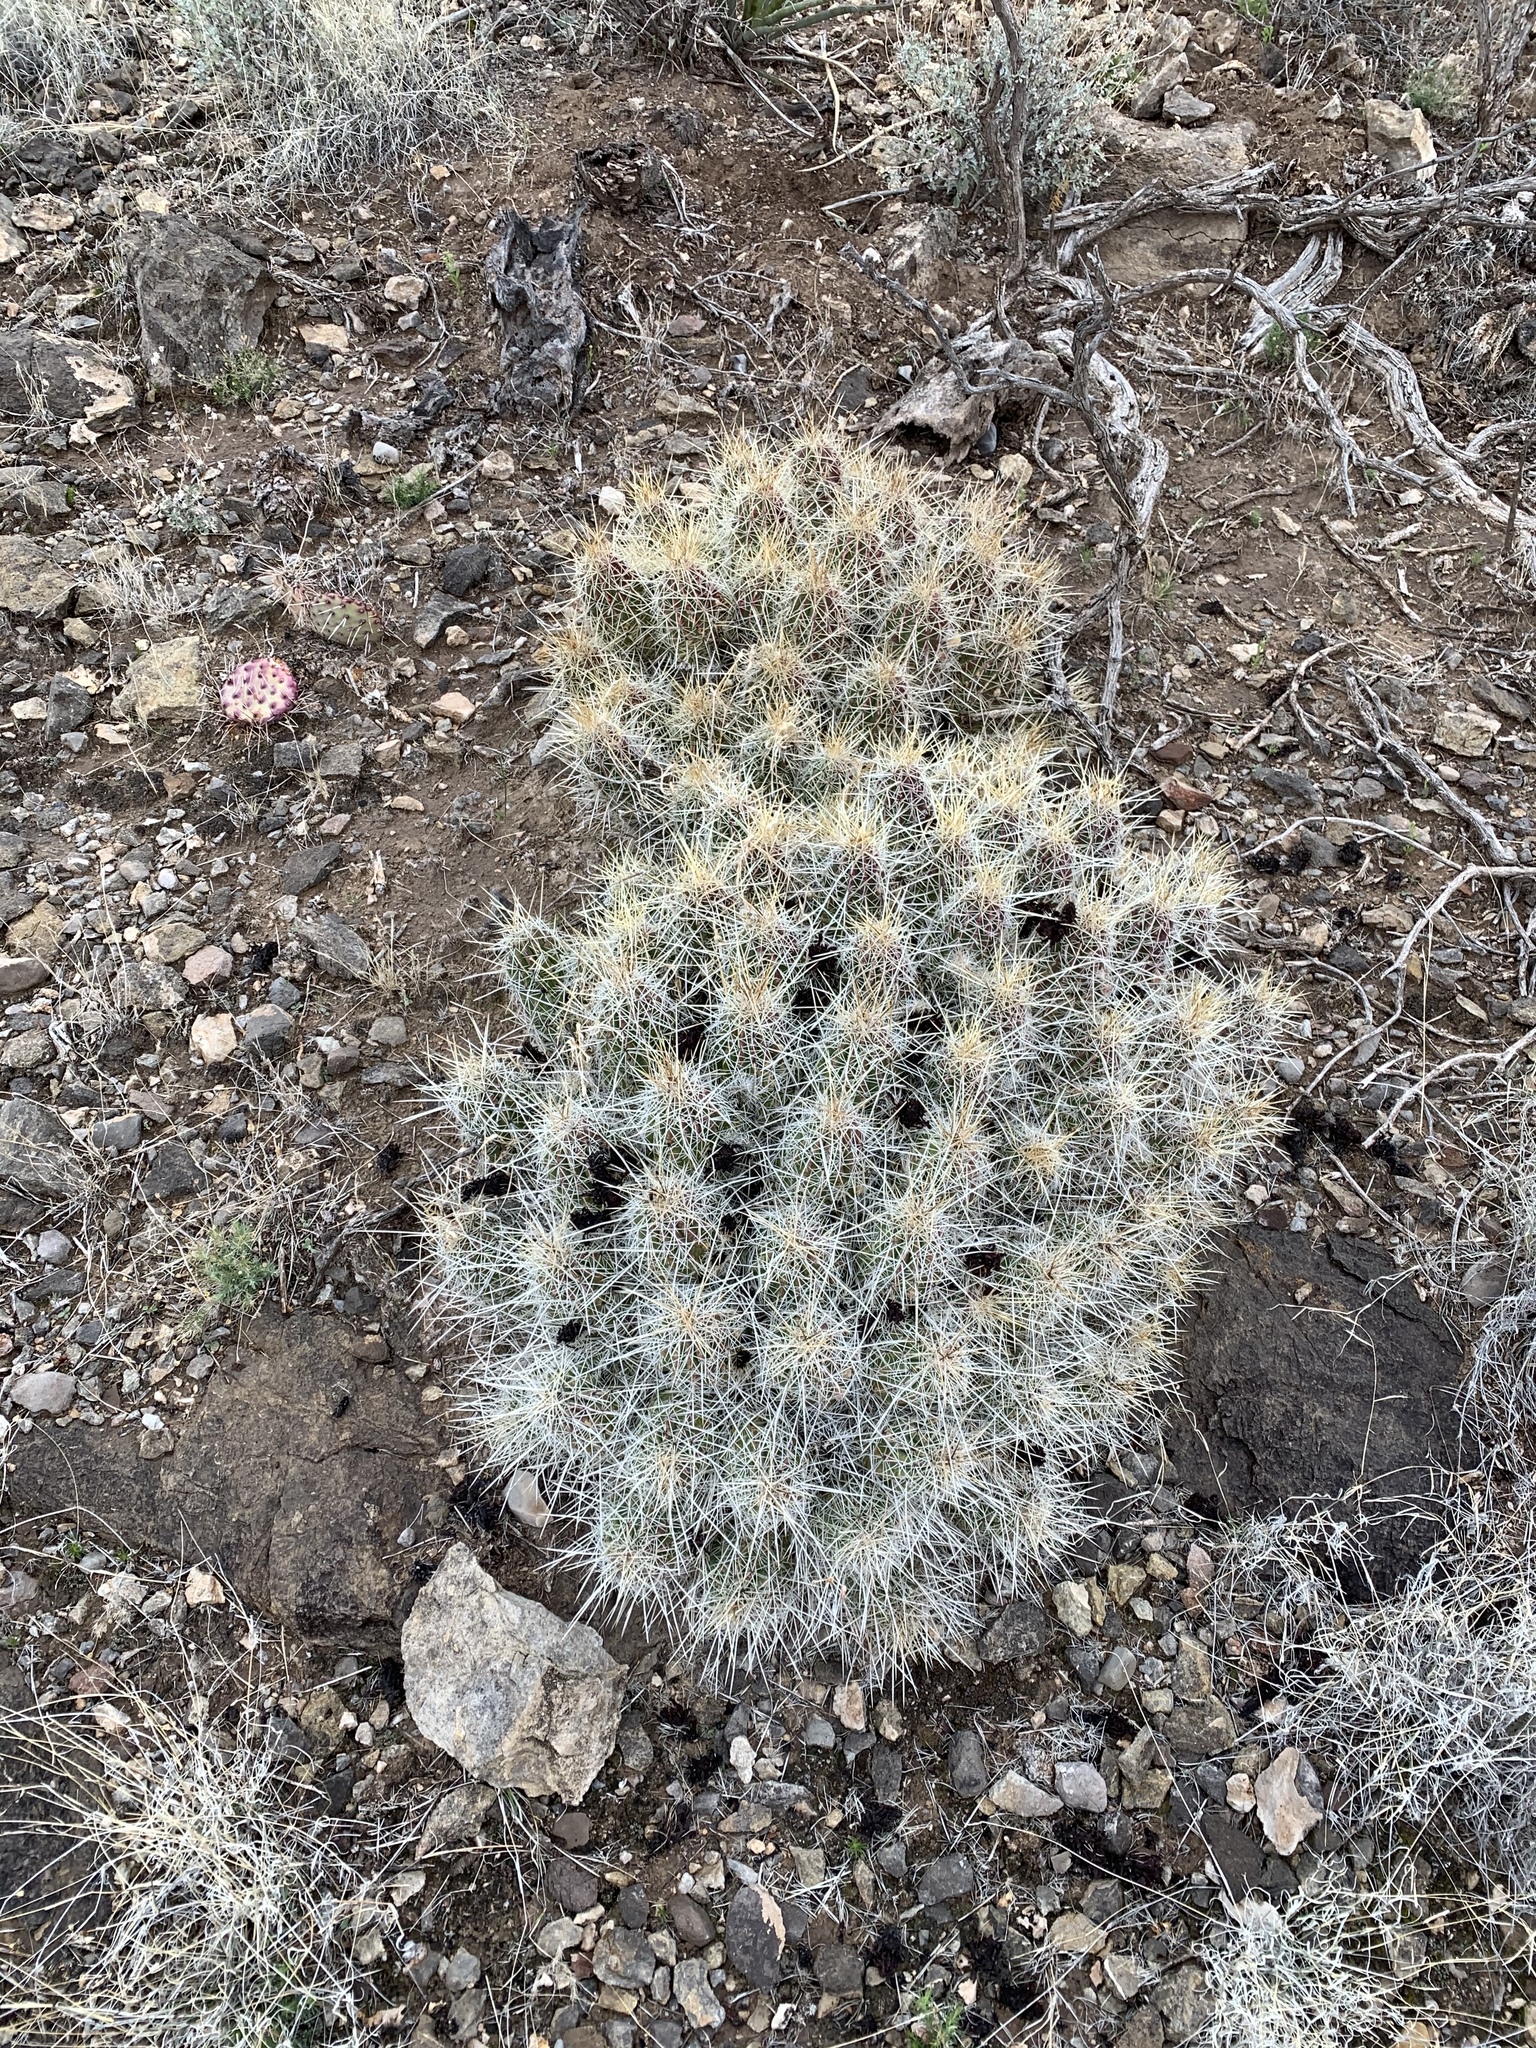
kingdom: Plantae
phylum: Tracheophyta
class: Magnoliopsida
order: Caryophyllales
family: Cactaceae
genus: Echinocereus
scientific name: Echinocereus stramineus
